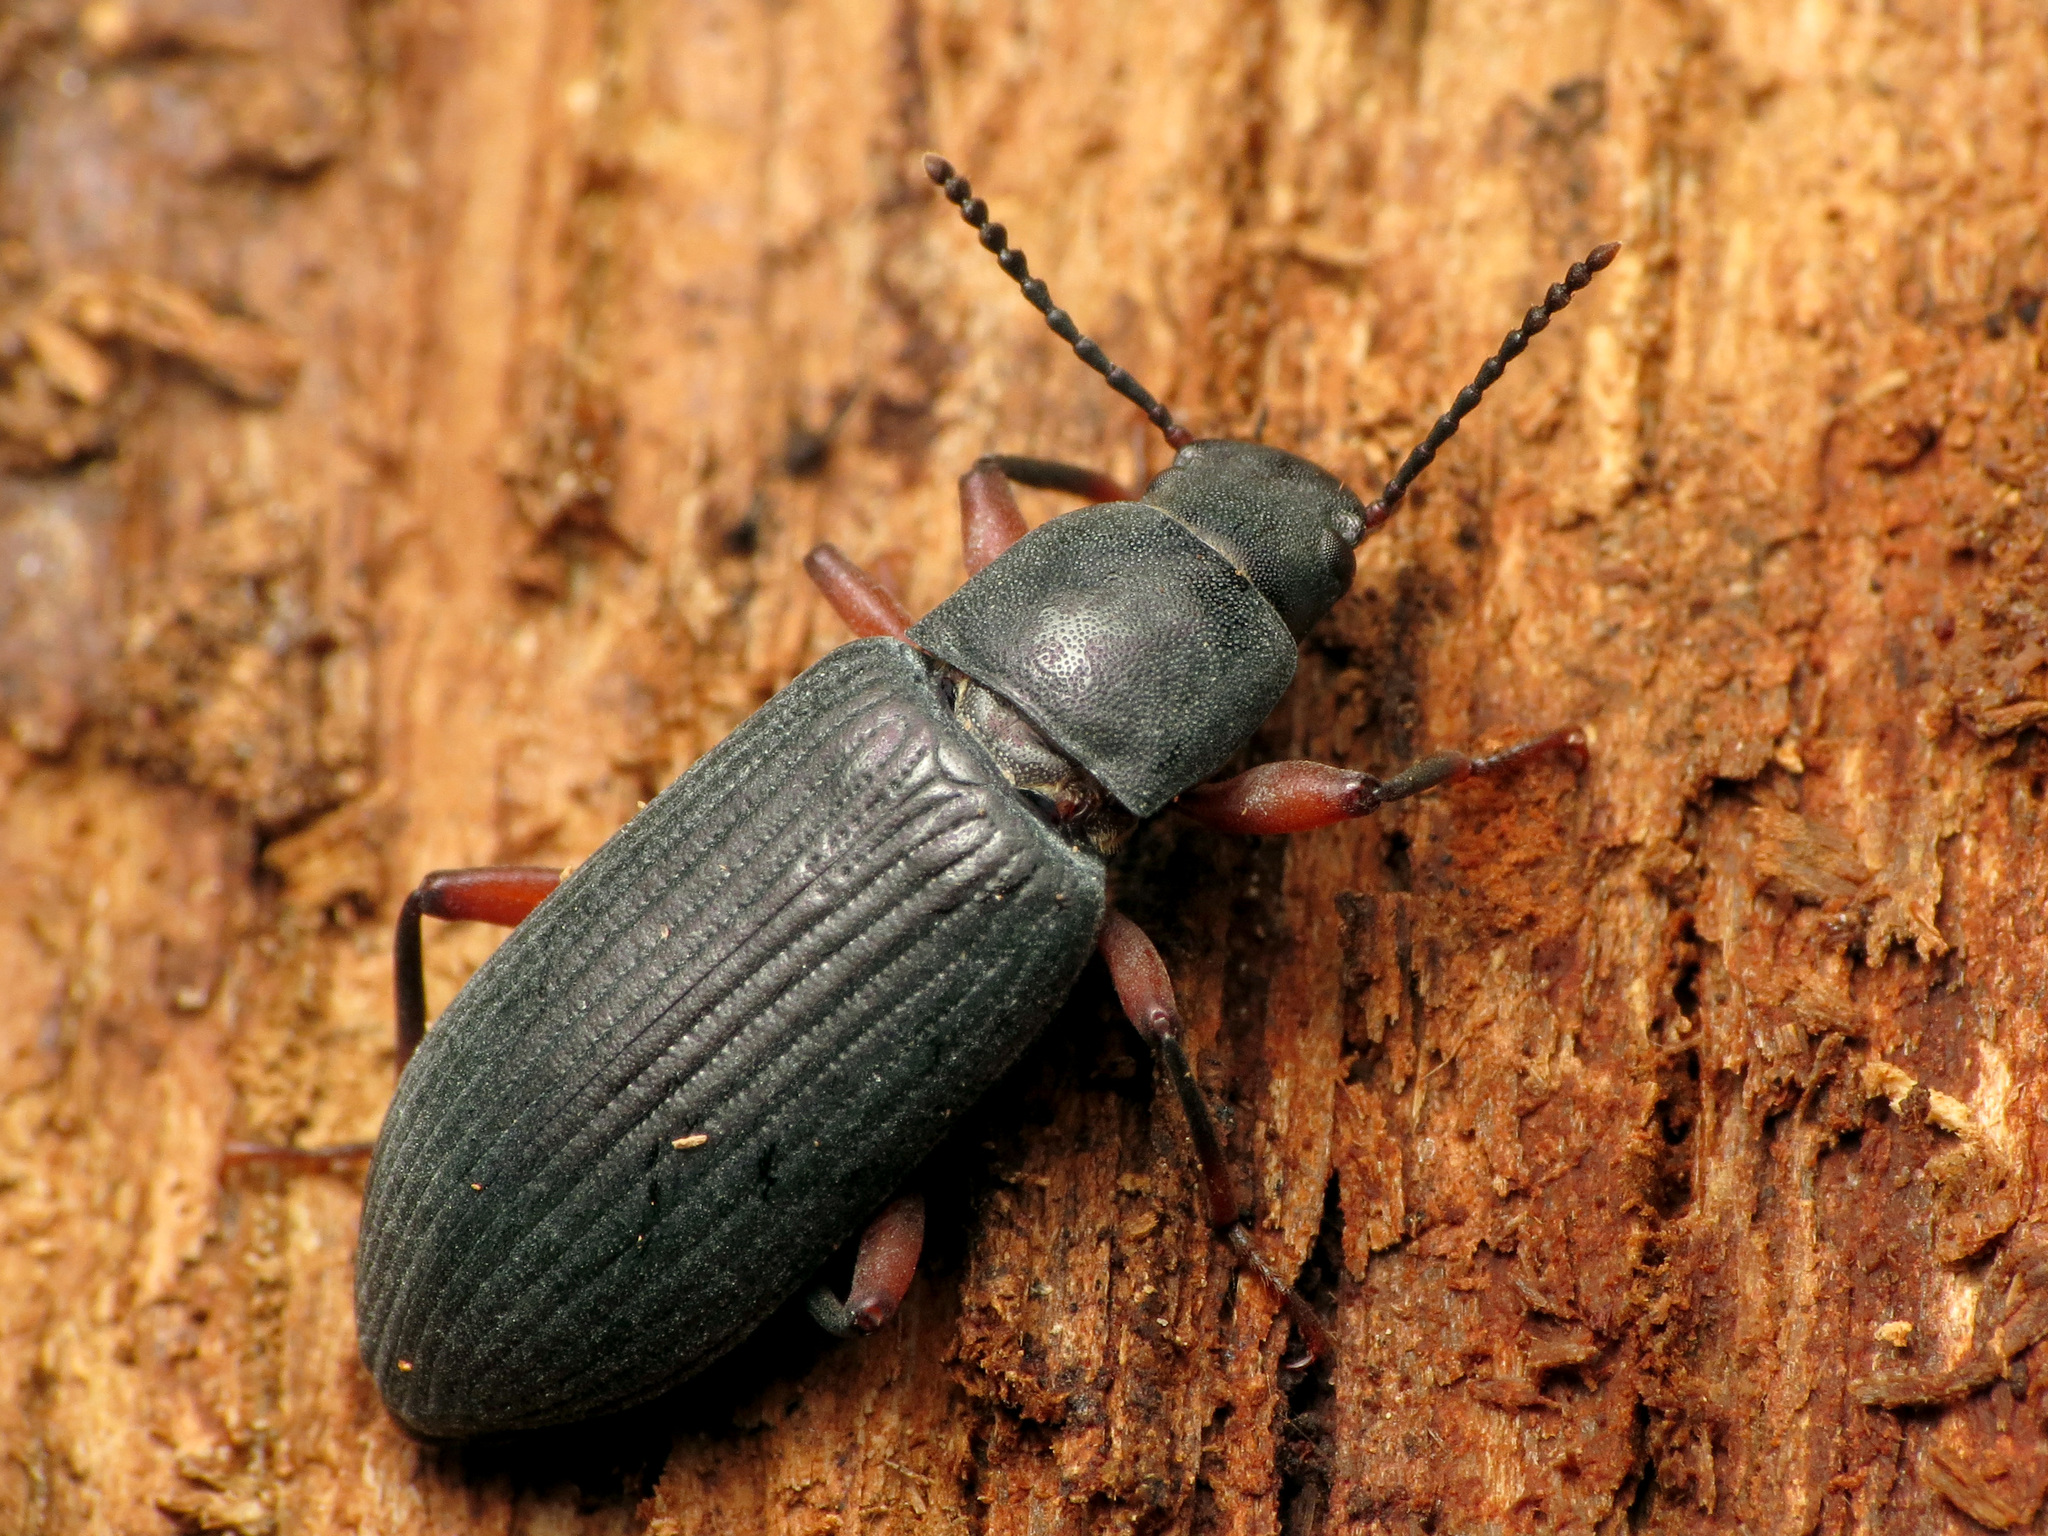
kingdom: Animalia
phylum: Arthropoda
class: Insecta
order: Coleoptera
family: Tenebrionidae
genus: Xylopinus
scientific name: Xylopinus saperdoides
